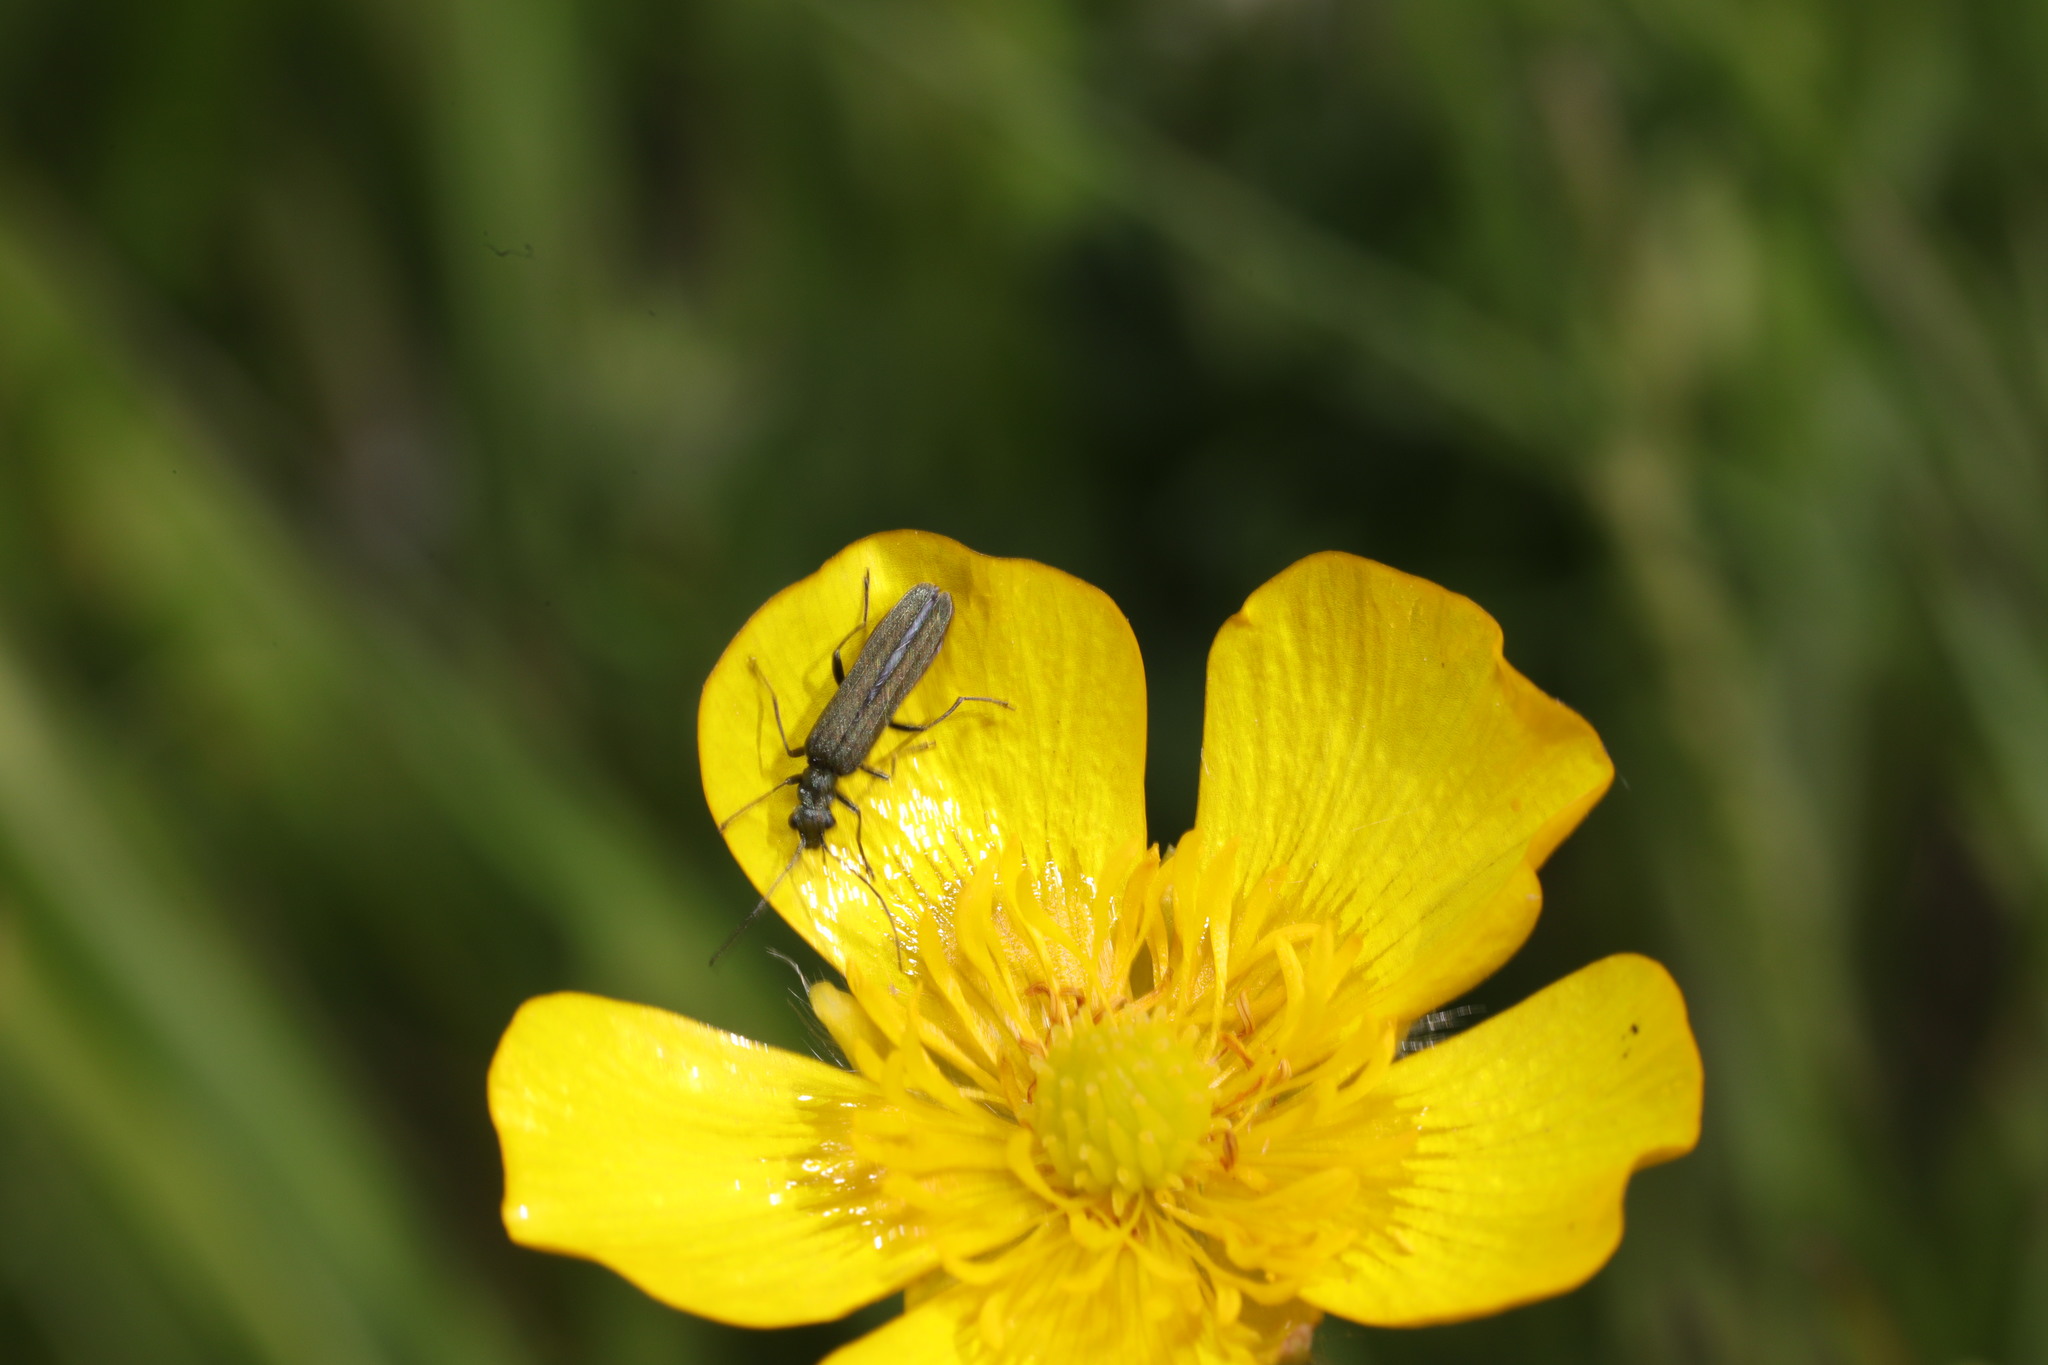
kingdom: Animalia
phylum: Arthropoda
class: Insecta
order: Coleoptera
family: Oedemeridae
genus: Oedemera
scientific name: Oedemera lurida
